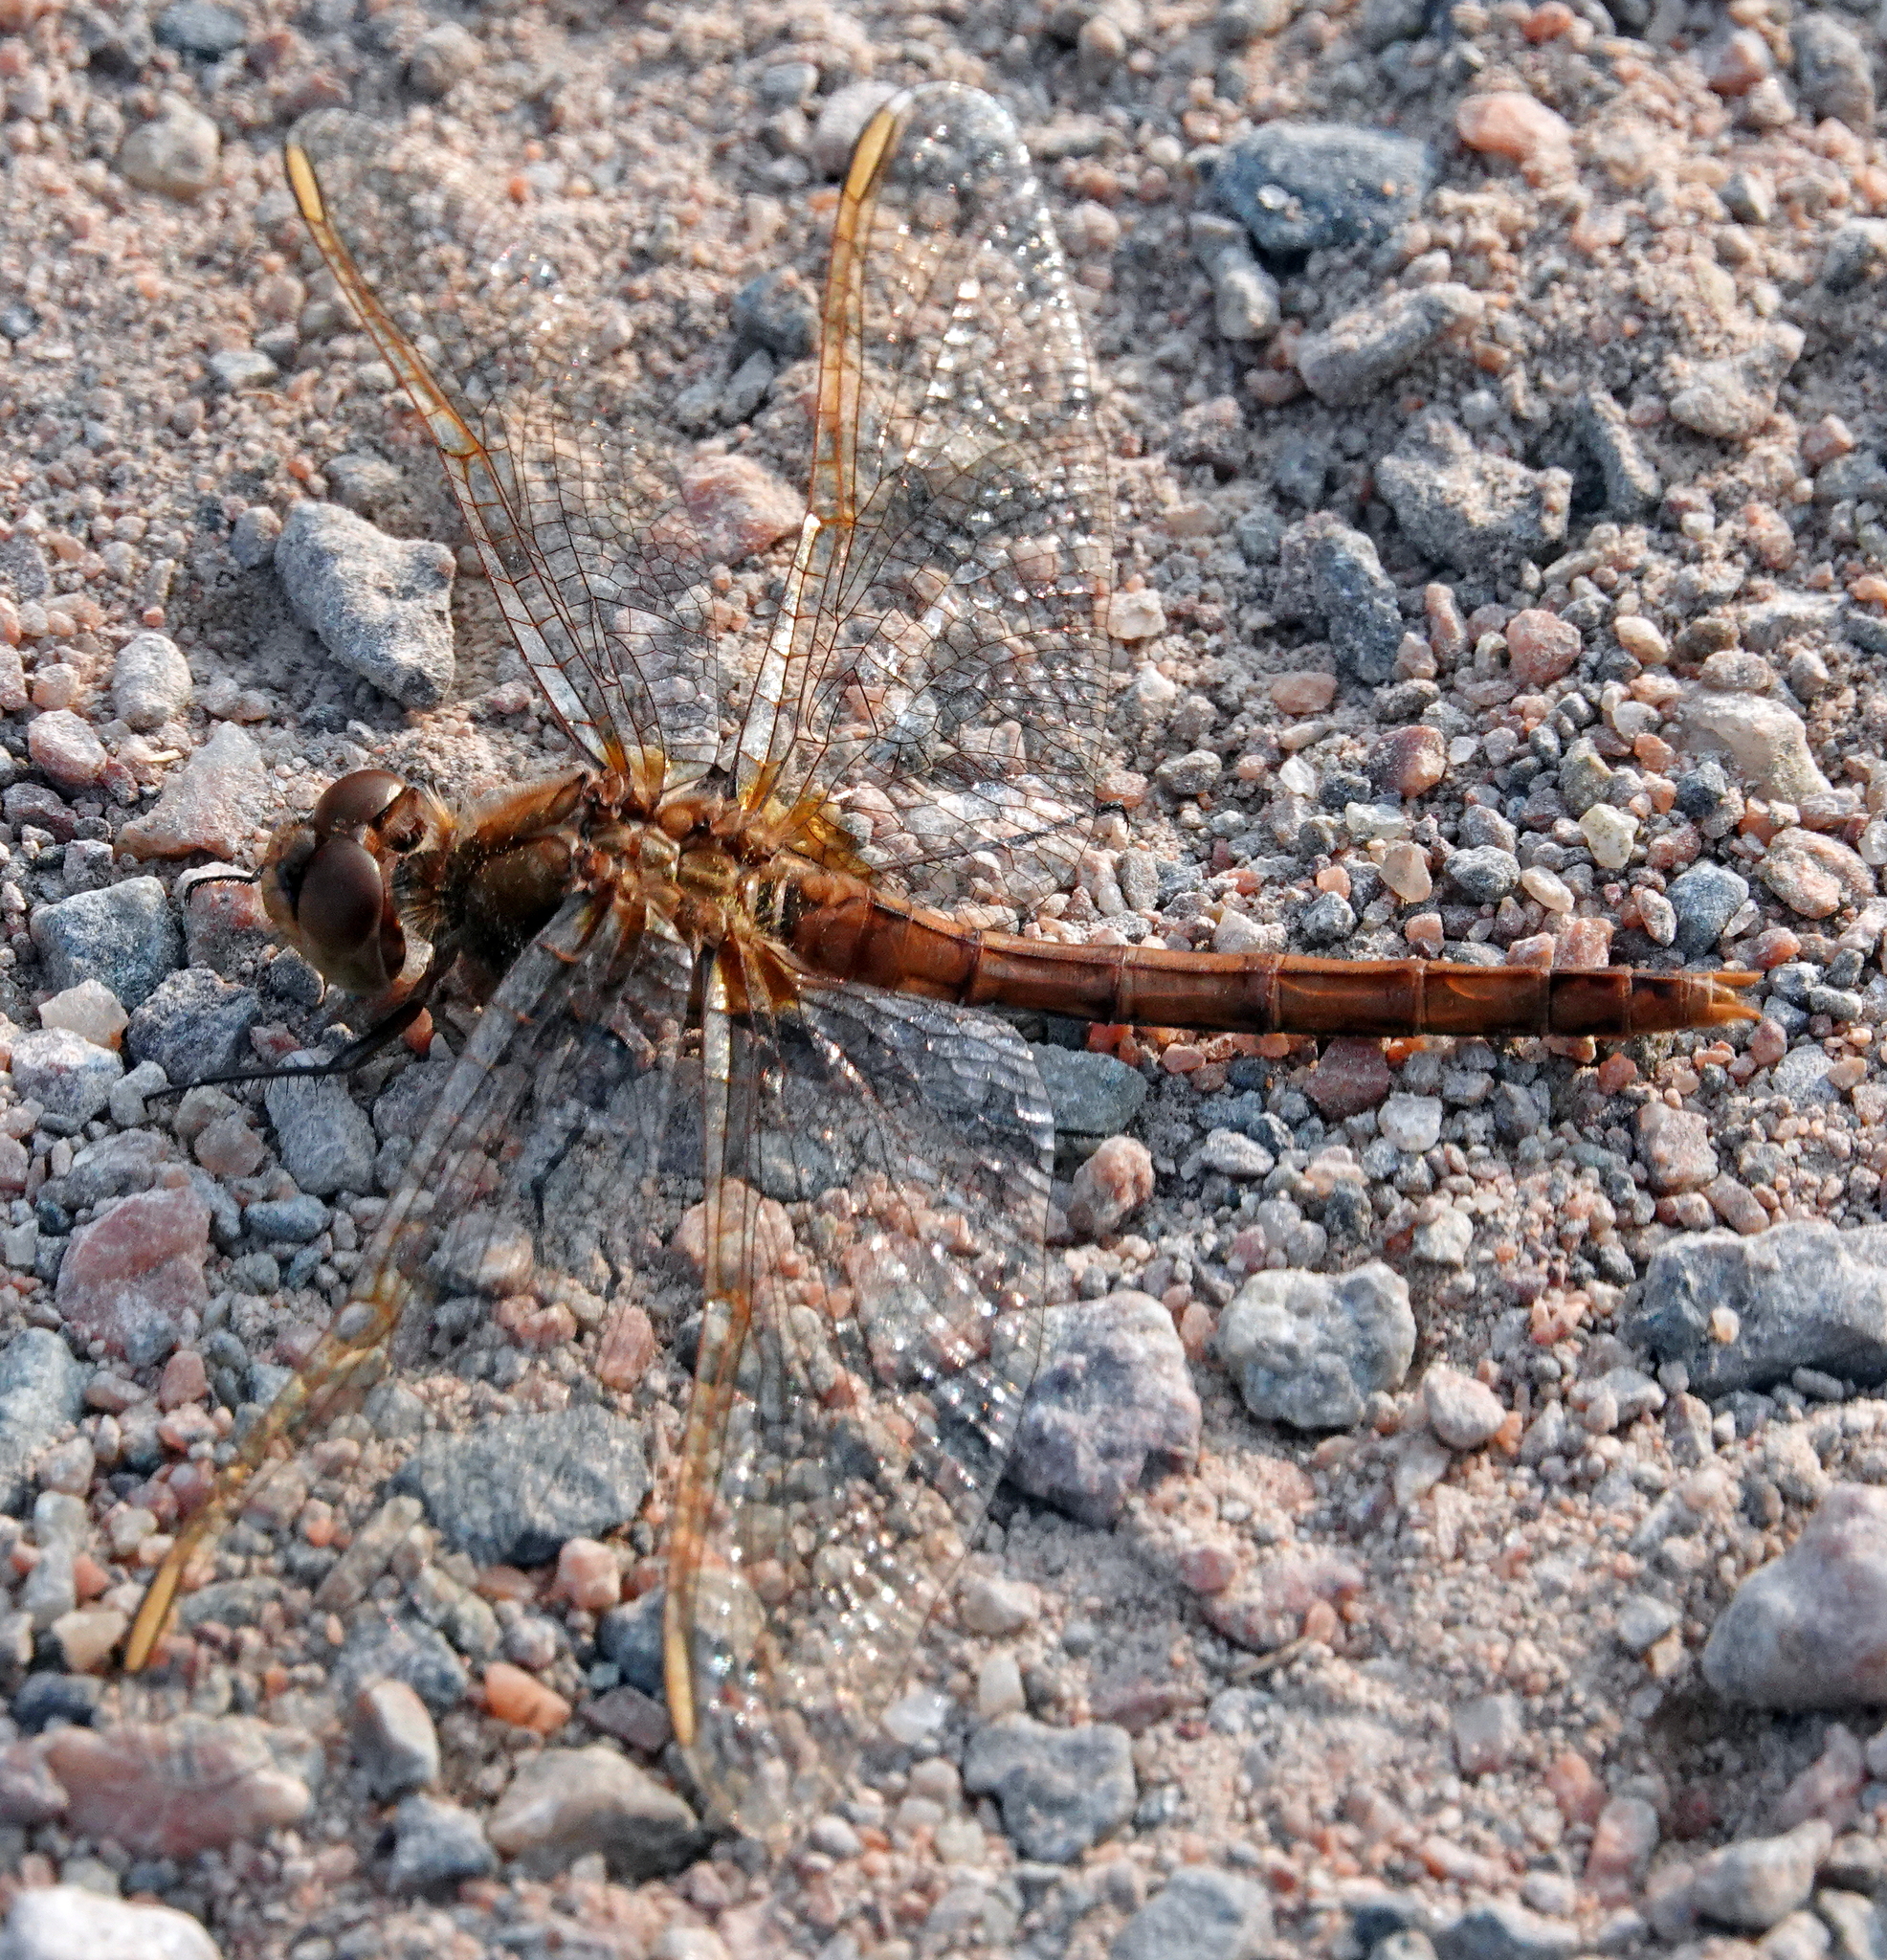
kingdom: Animalia
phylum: Arthropoda
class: Insecta
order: Odonata
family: Libellulidae
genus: Sympetrum
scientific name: Sympetrum costiferum
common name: Saffron-winged meadowhawk
